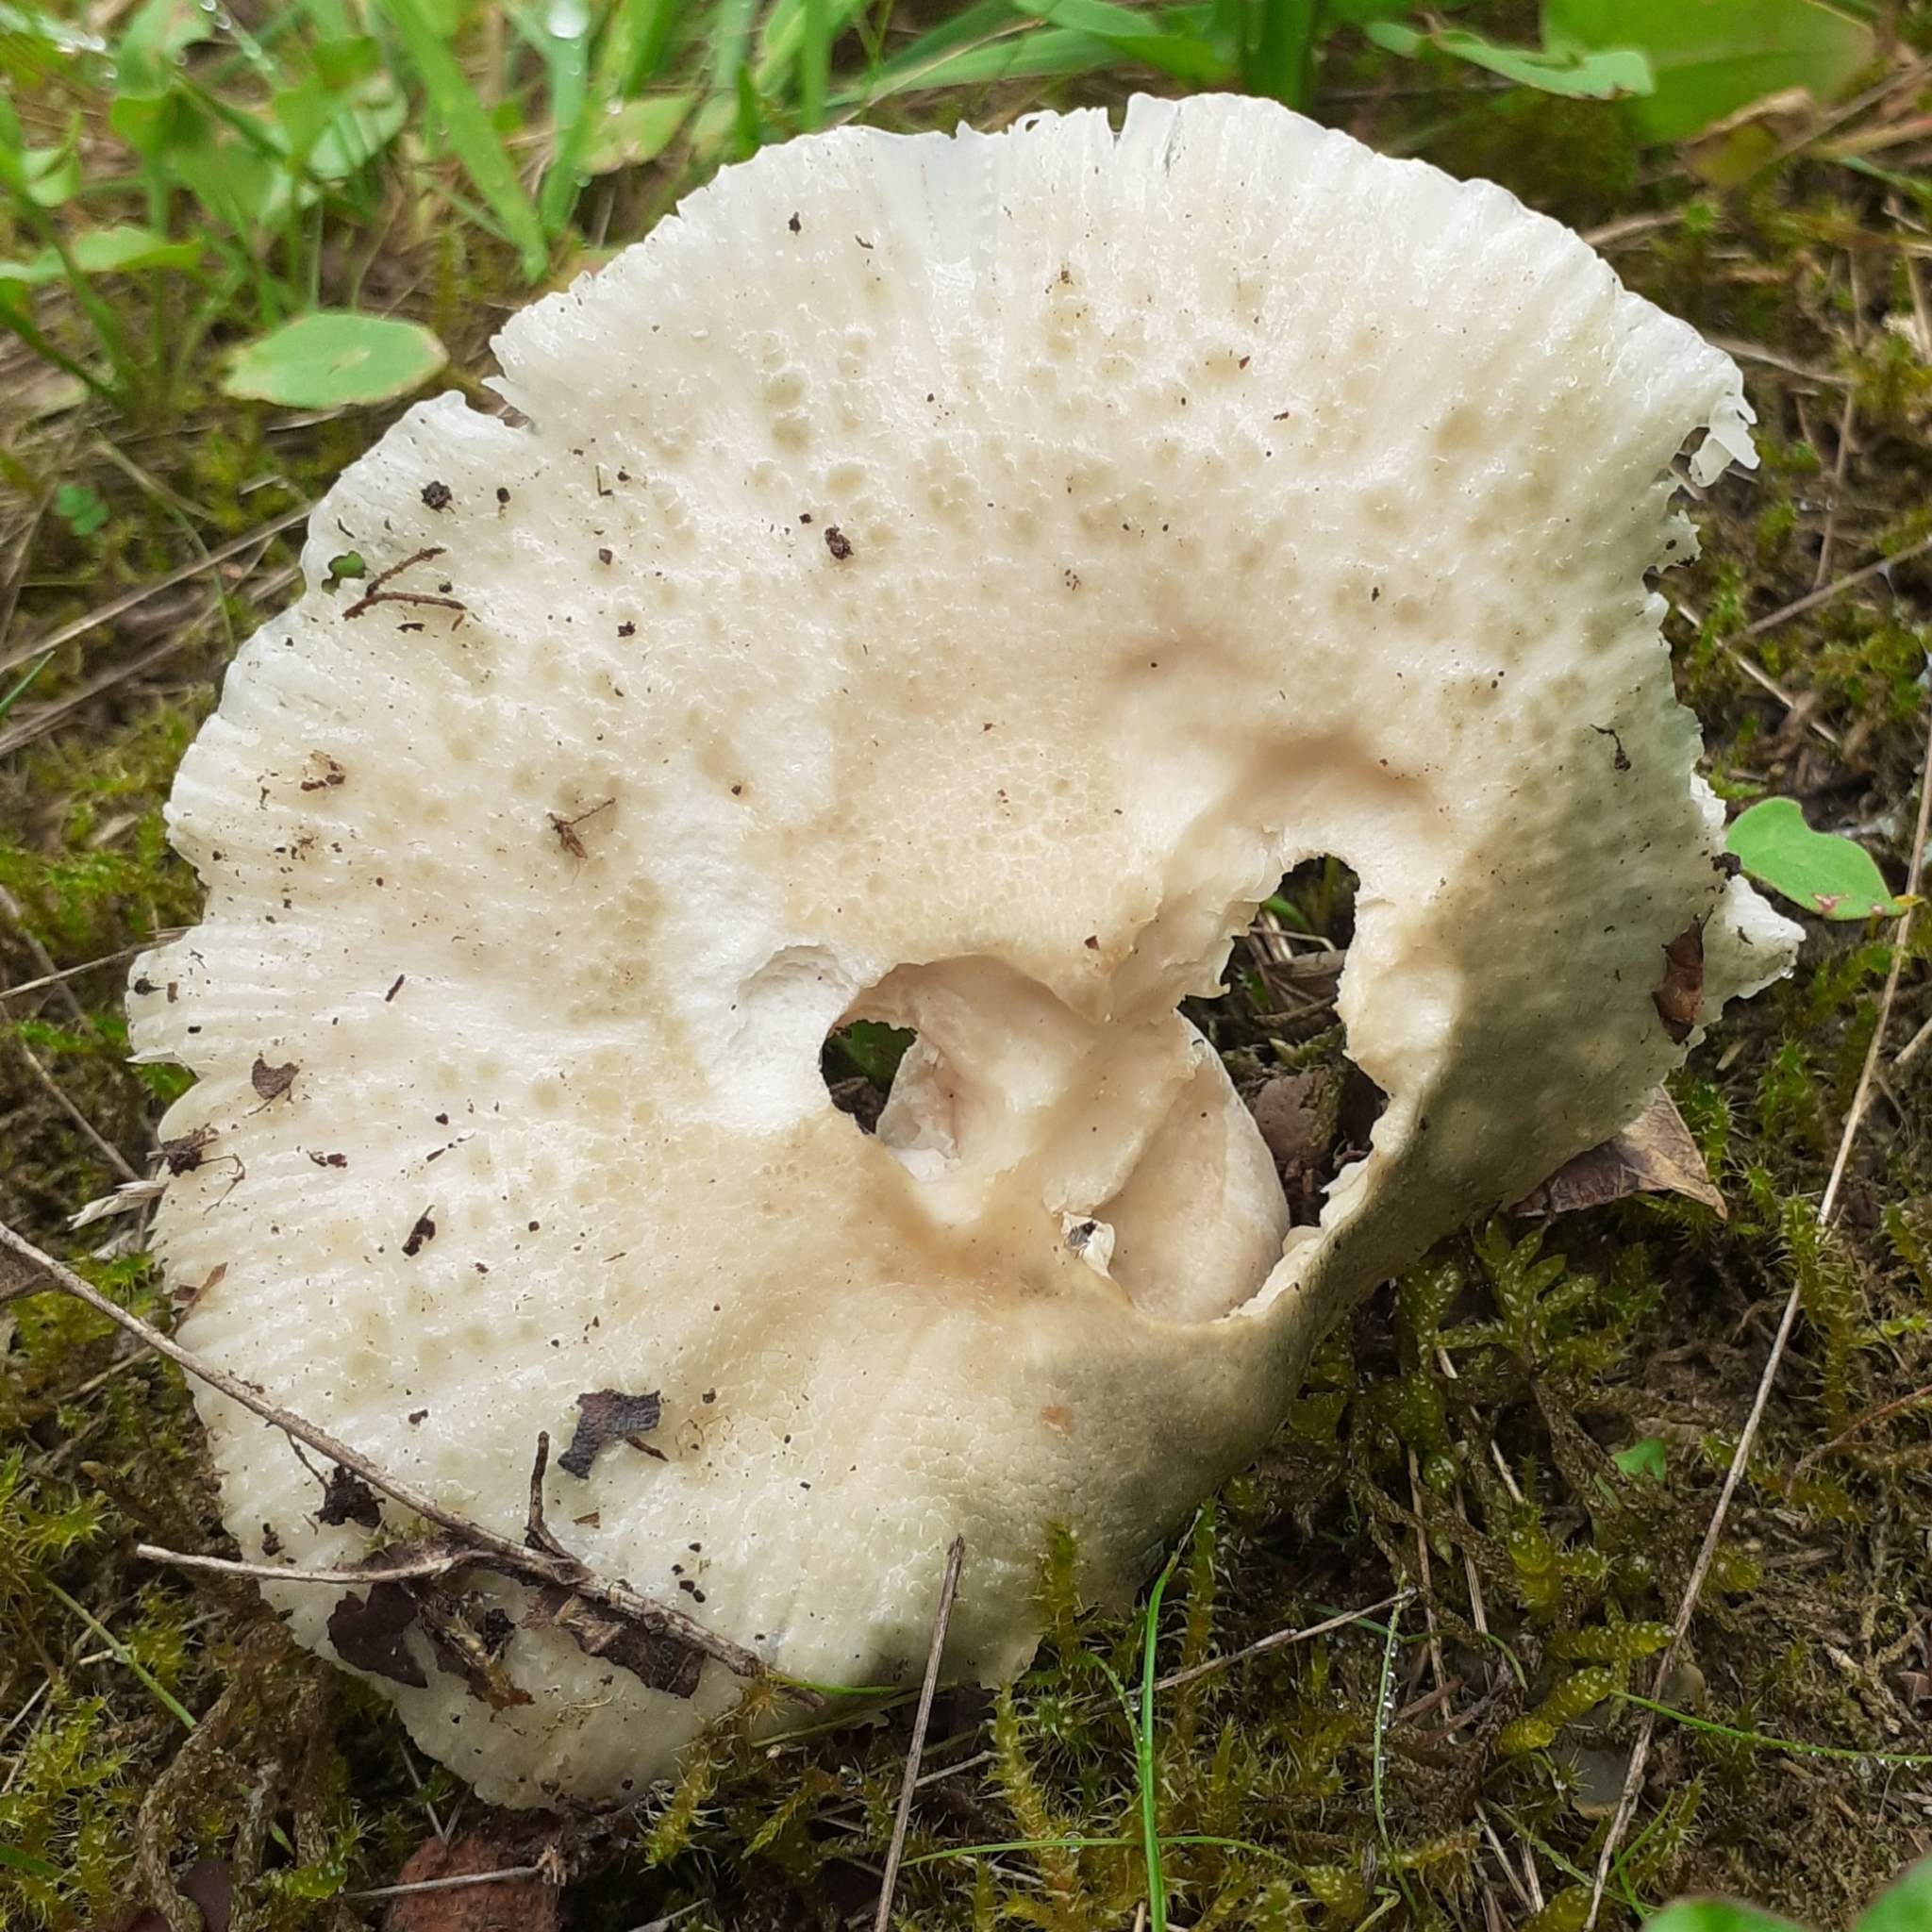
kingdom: Fungi
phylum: Basidiomycota
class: Agaricomycetes
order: Russulales
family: Russulaceae
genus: Russula
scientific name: Russula virescens
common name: Greencracked brittlegill
